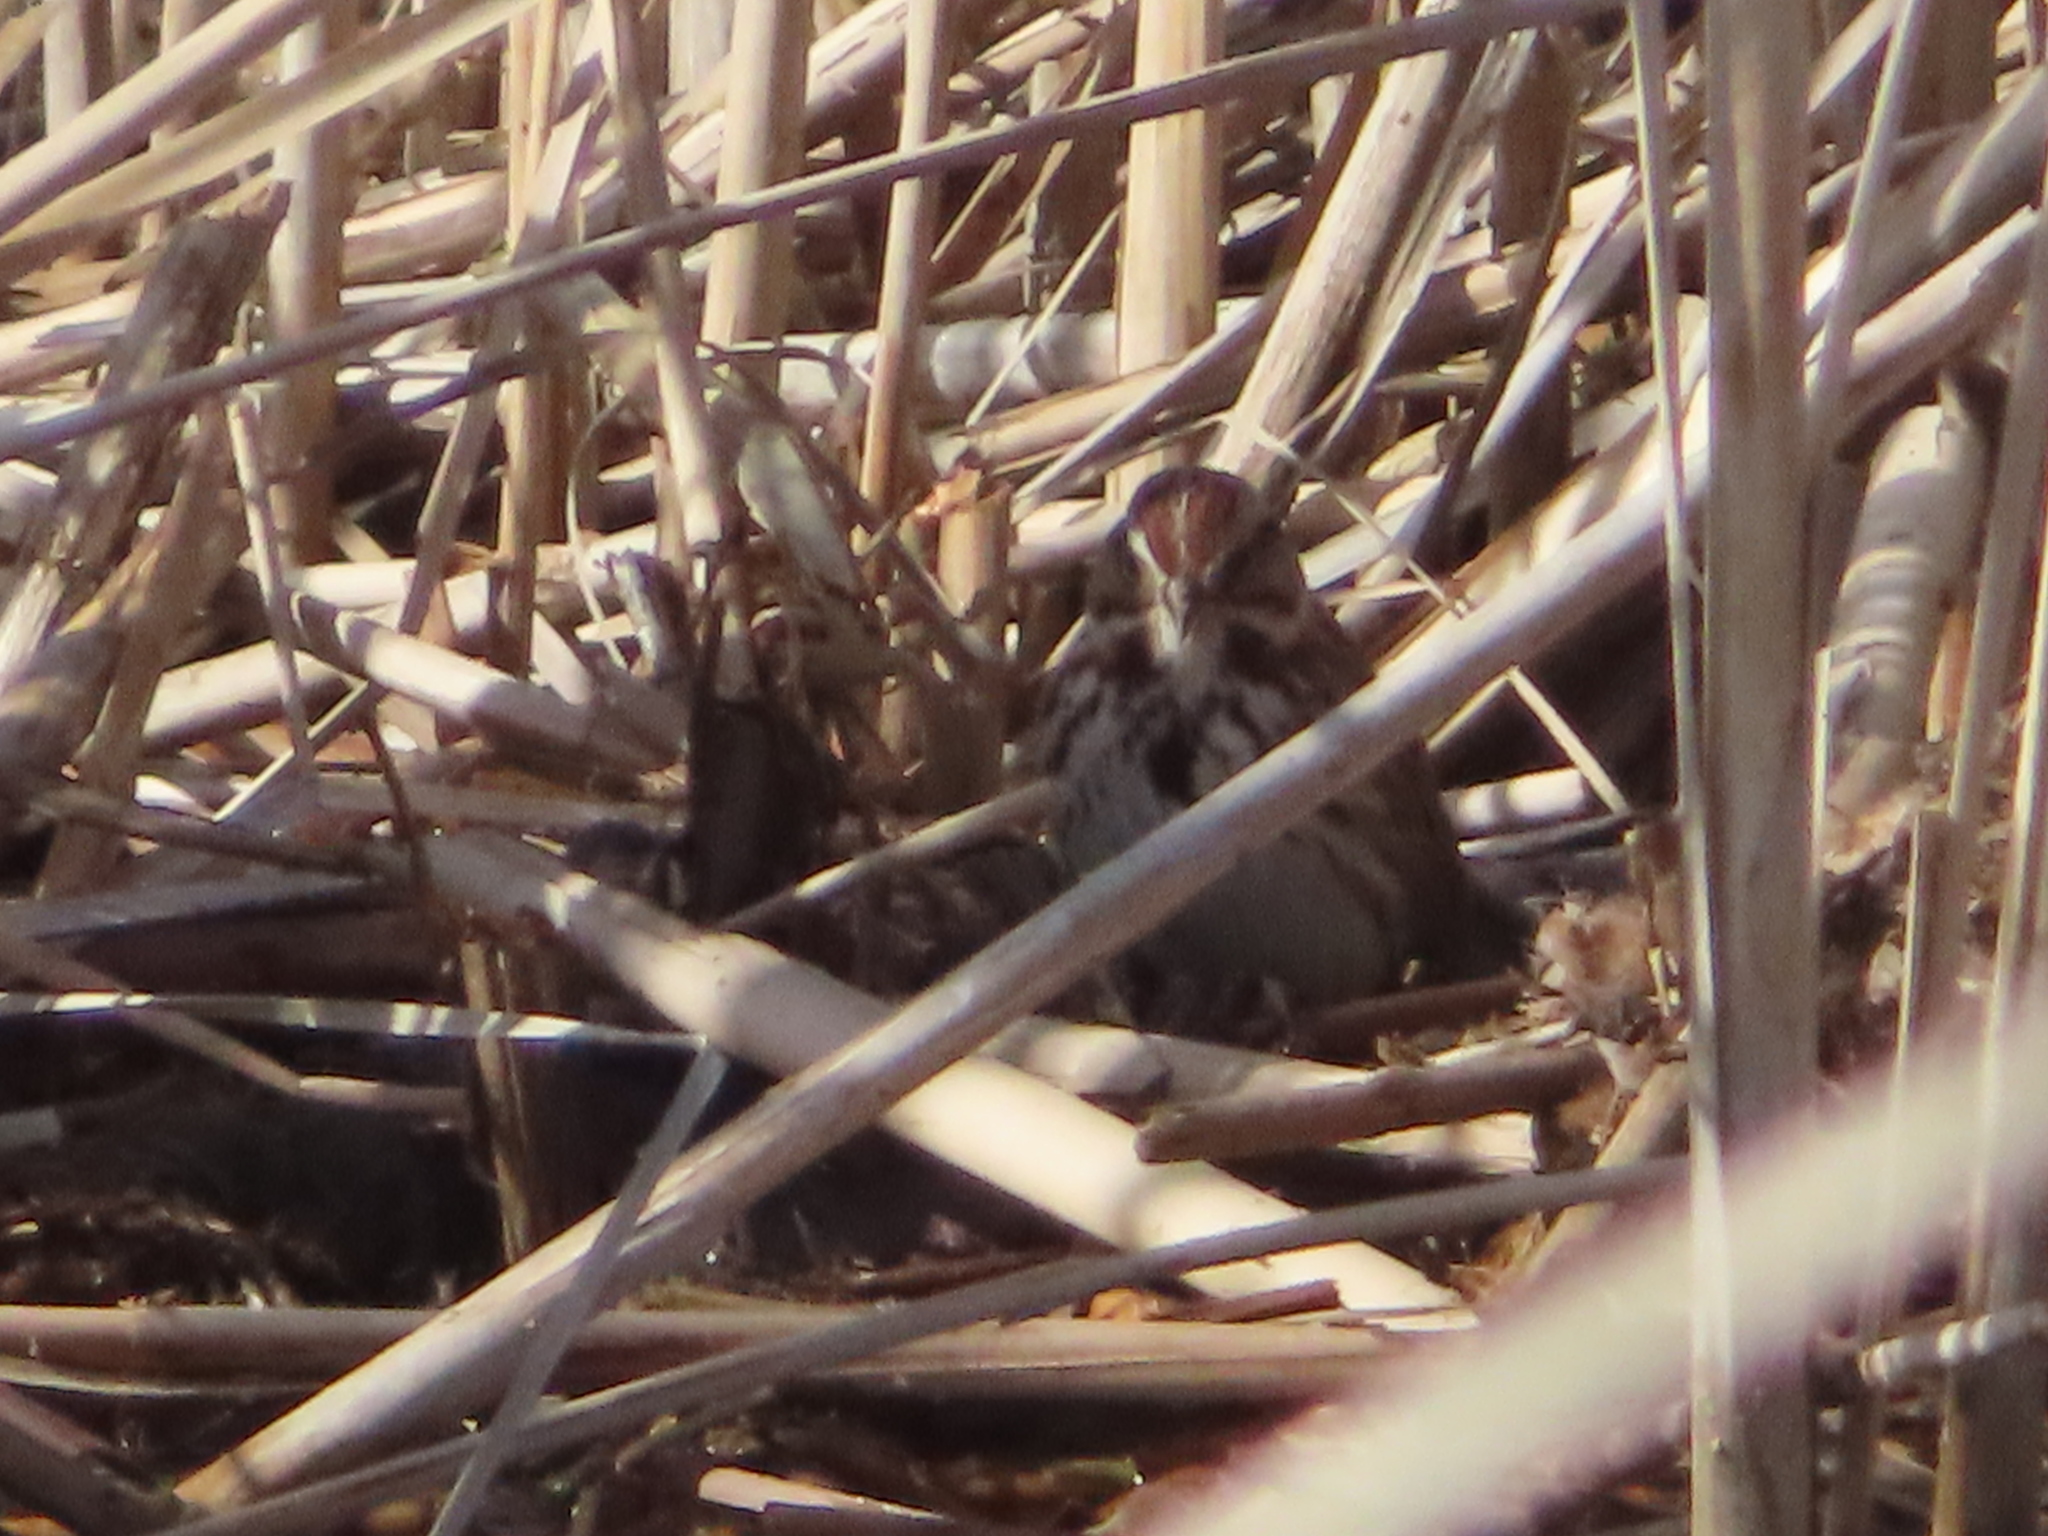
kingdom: Animalia
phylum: Chordata
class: Aves
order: Passeriformes
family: Passerellidae
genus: Melospiza
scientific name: Melospiza melodia
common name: Song sparrow
